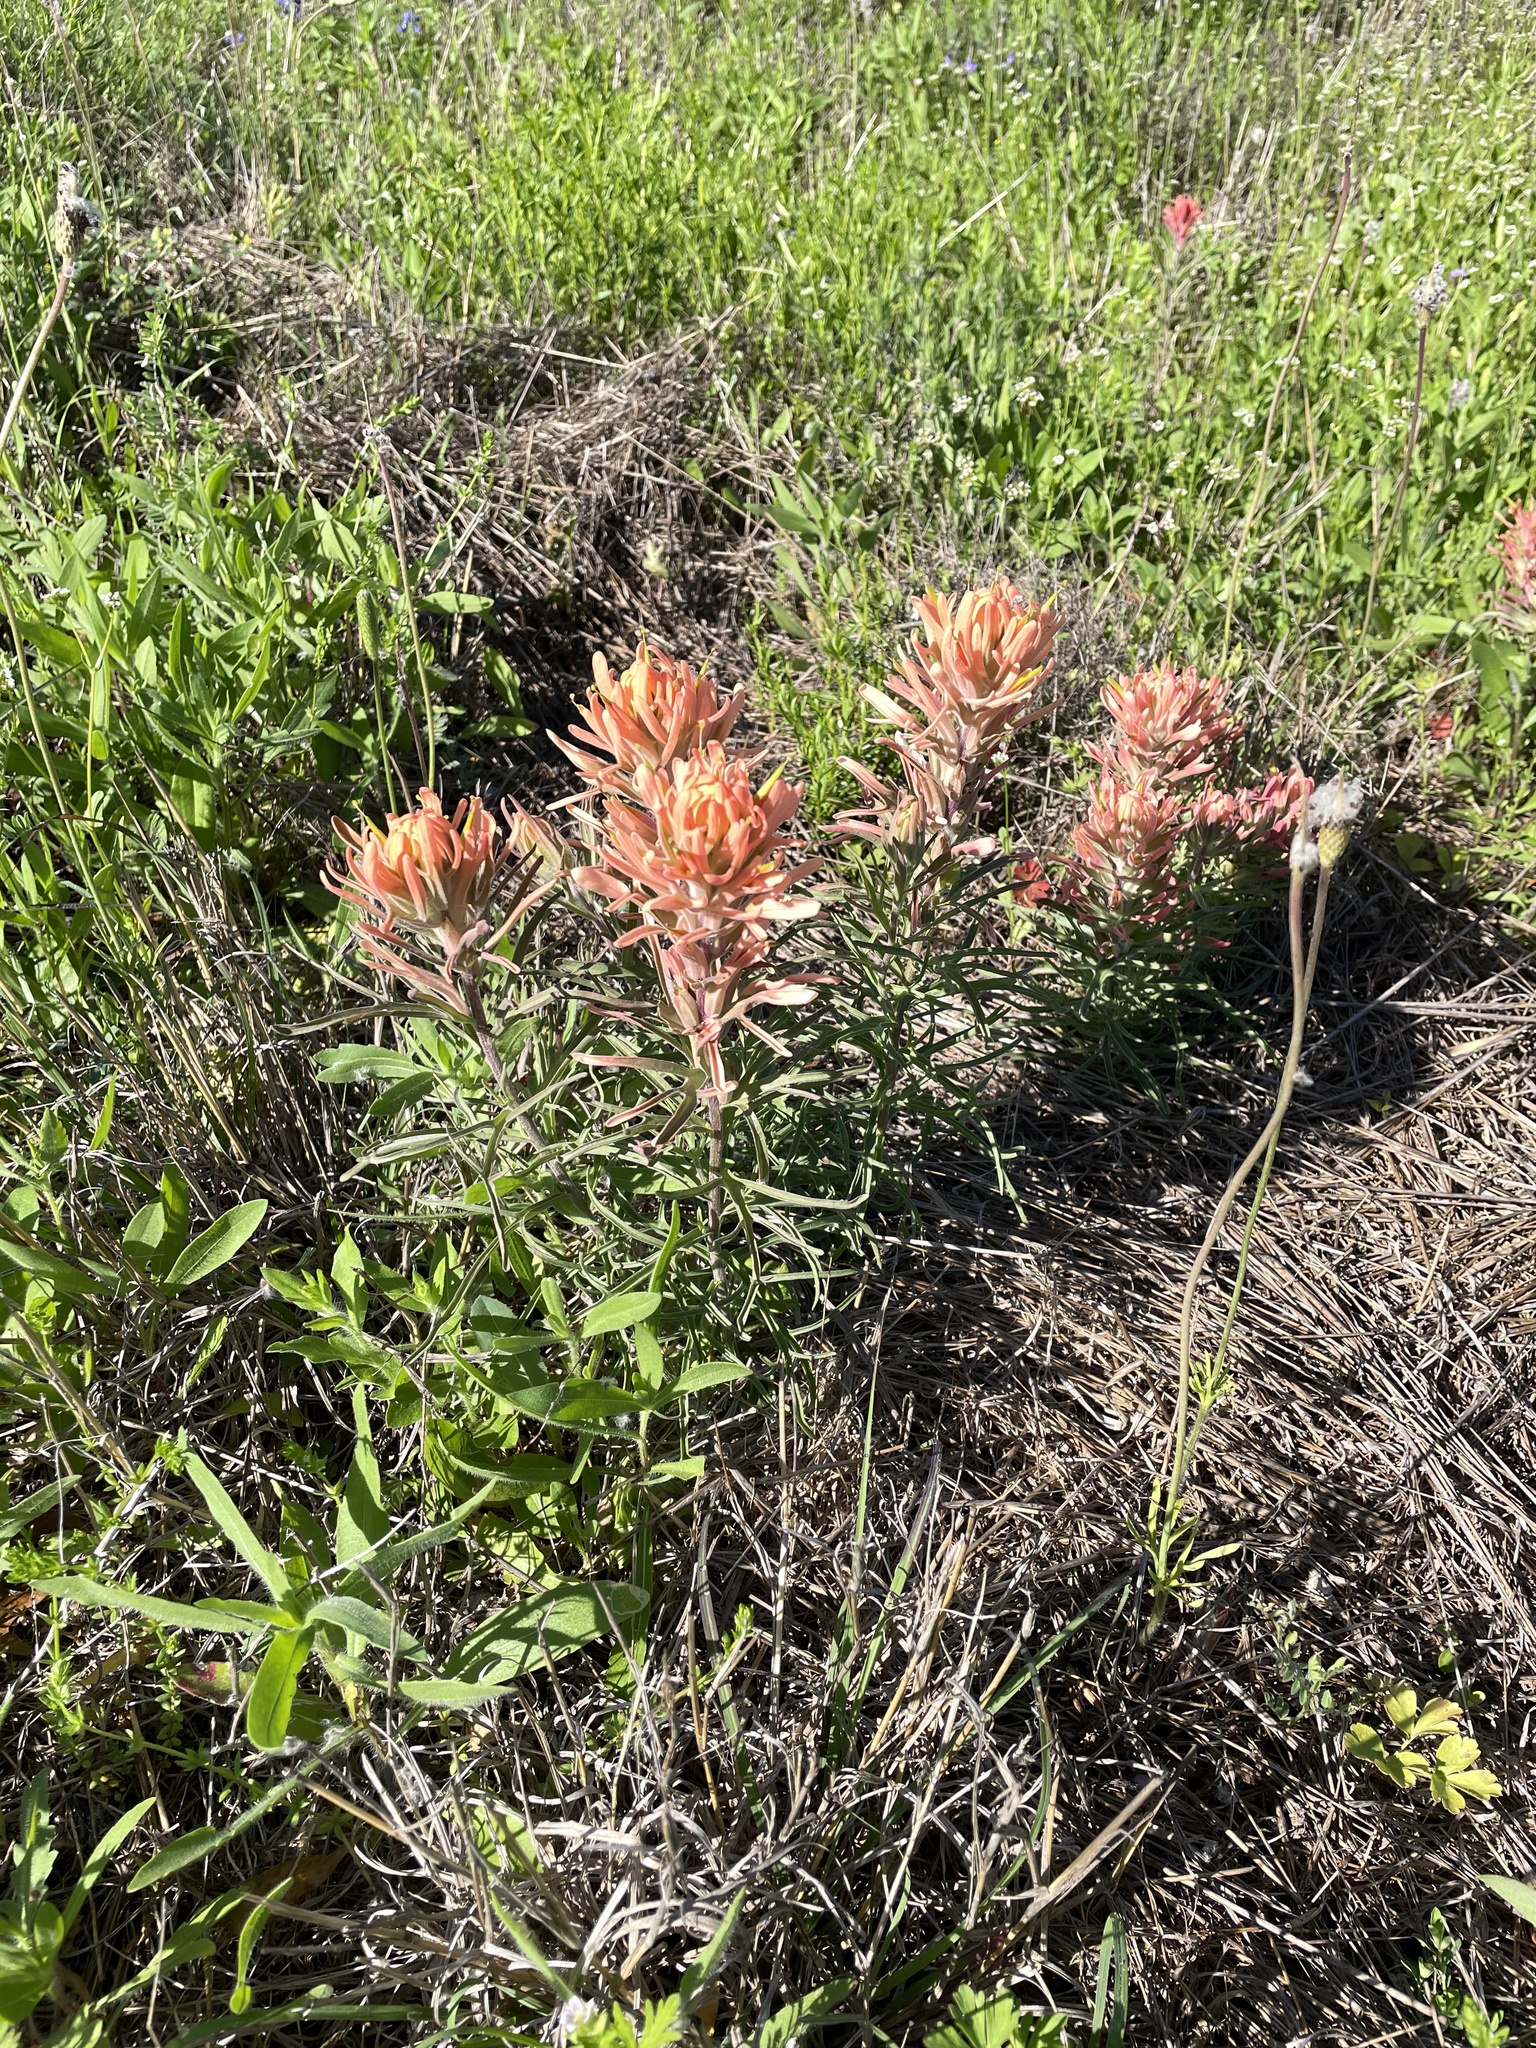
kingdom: Plantae
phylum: Tracheophyta
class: Magnoliopsida
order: Lamiales
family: Orobanchaceae
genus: Castilleja
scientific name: Castilleja lindheimeri
